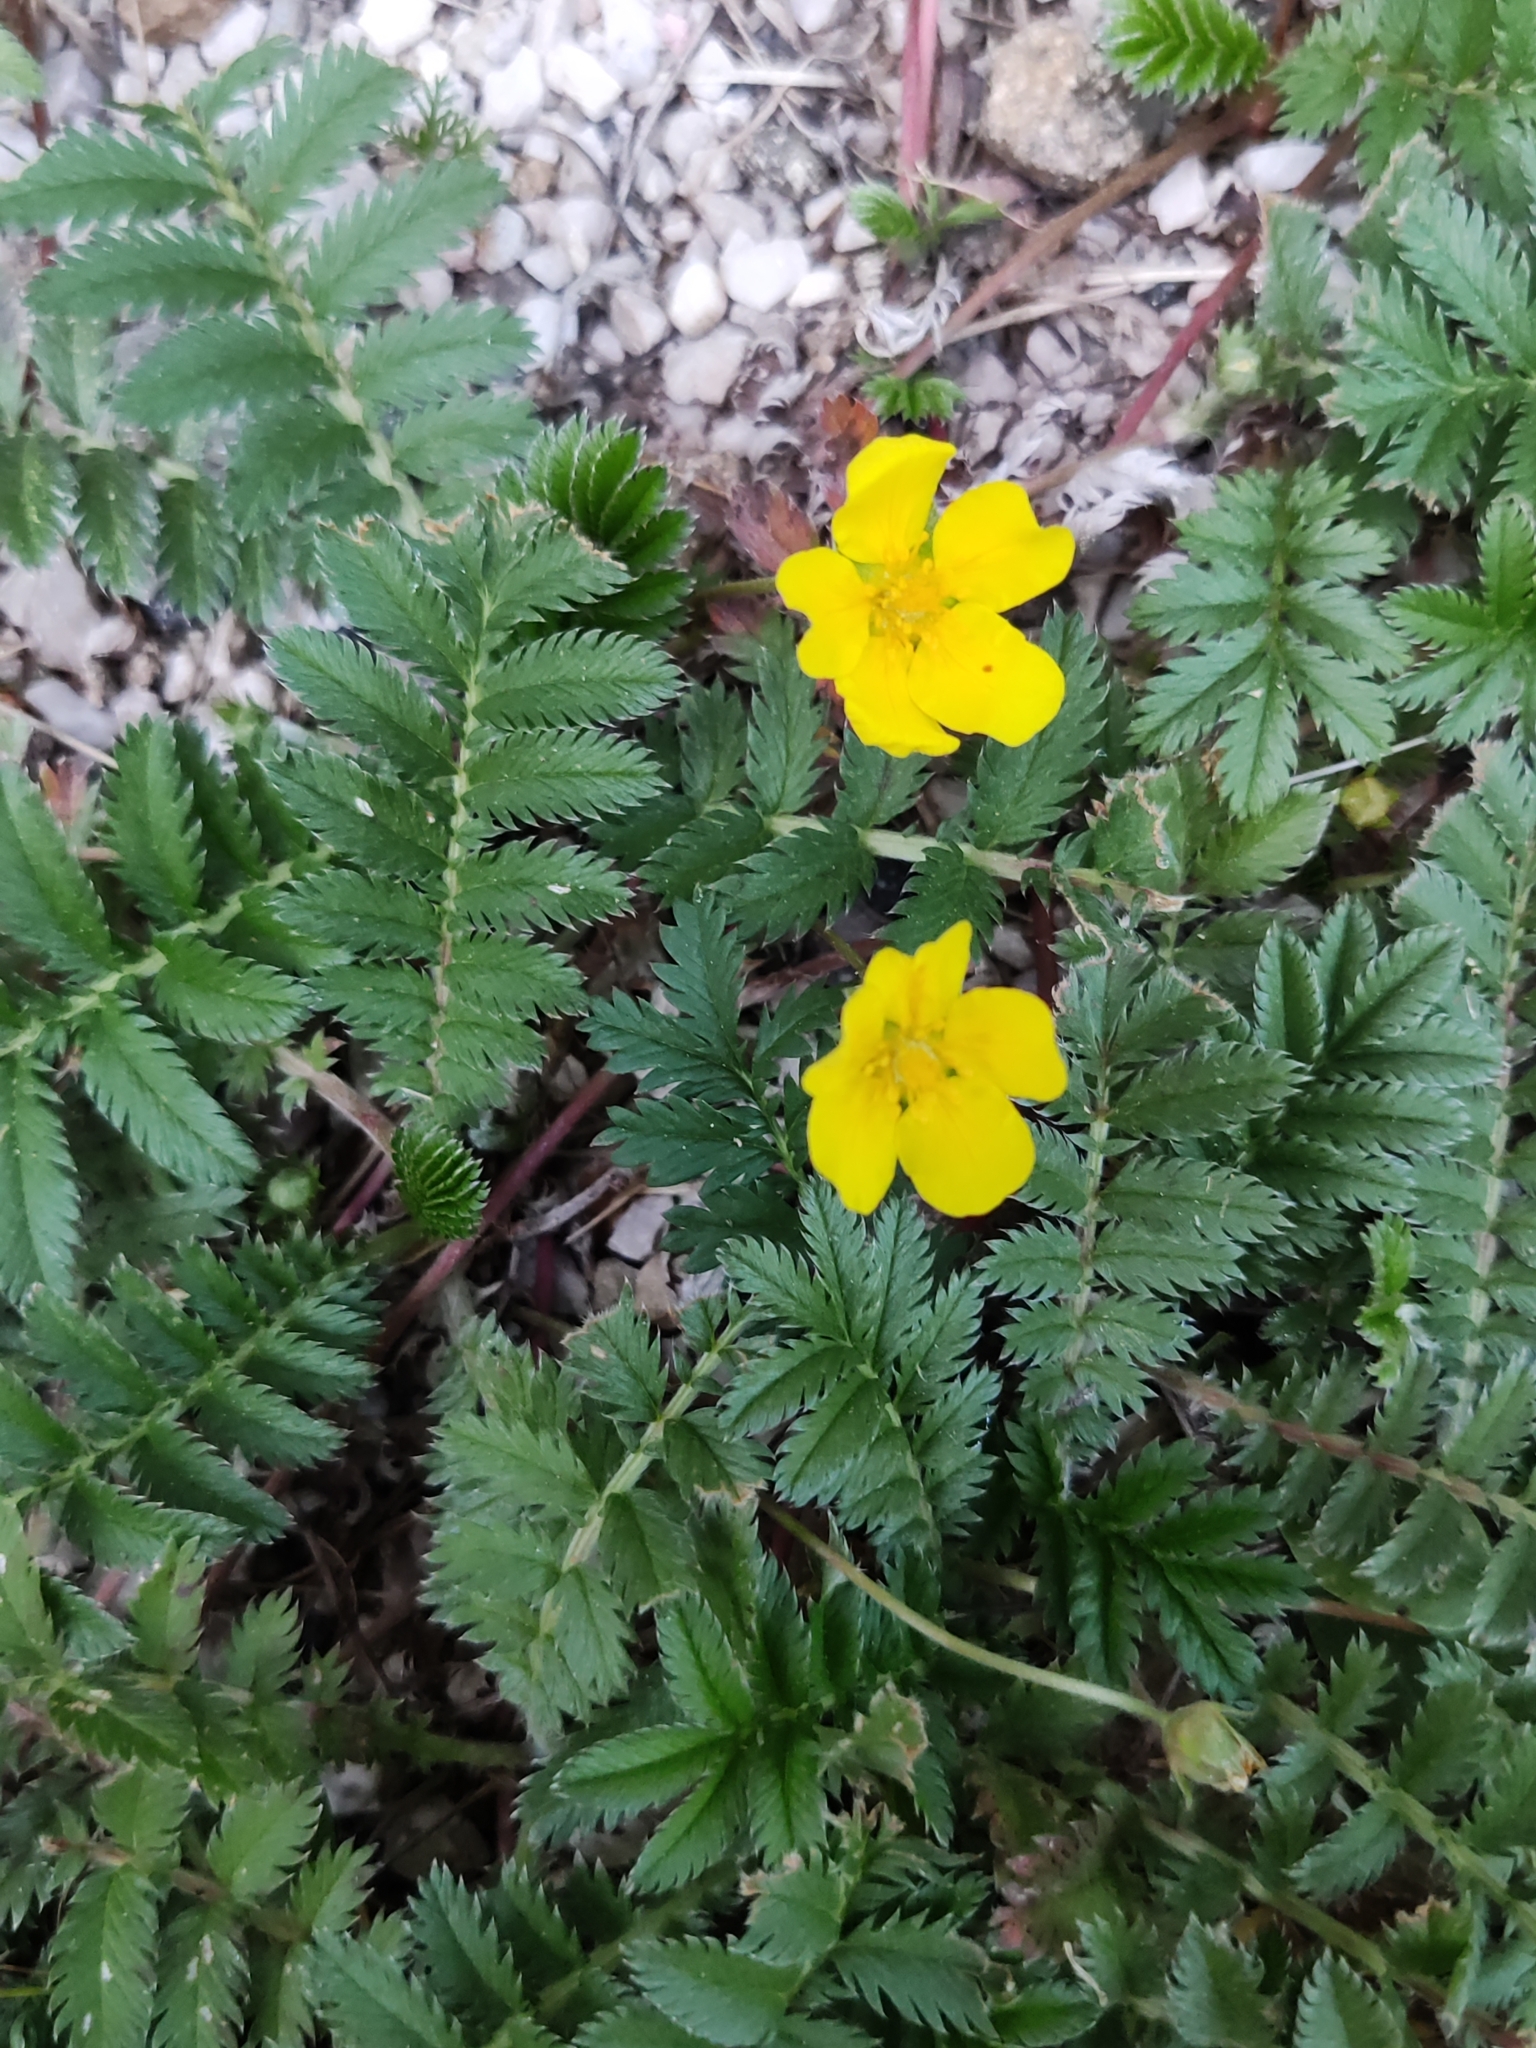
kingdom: Plantae
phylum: Tracheophyta
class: Magnoliopsida
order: Rosales
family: Rosaceae
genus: Argentina
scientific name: Argentina anserina
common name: Common silverweed
